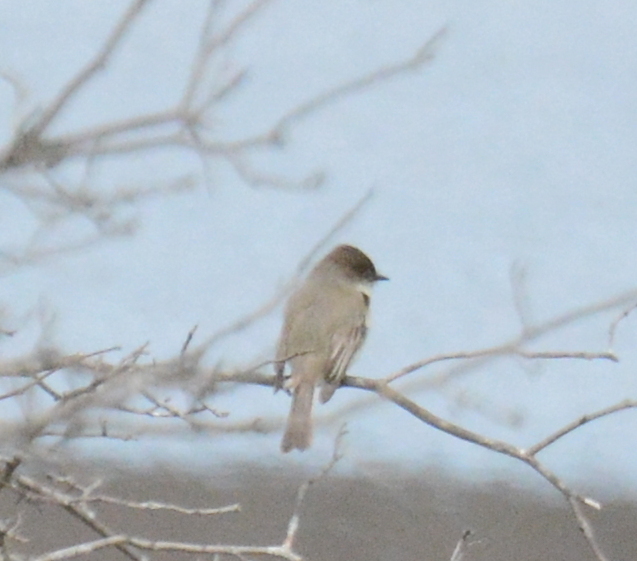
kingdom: Animalia
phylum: Chordata
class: Aves
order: Passeriformes
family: Tyrannidae
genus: Sayornis
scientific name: Sayornis phoebe
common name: Eastern phoebe
